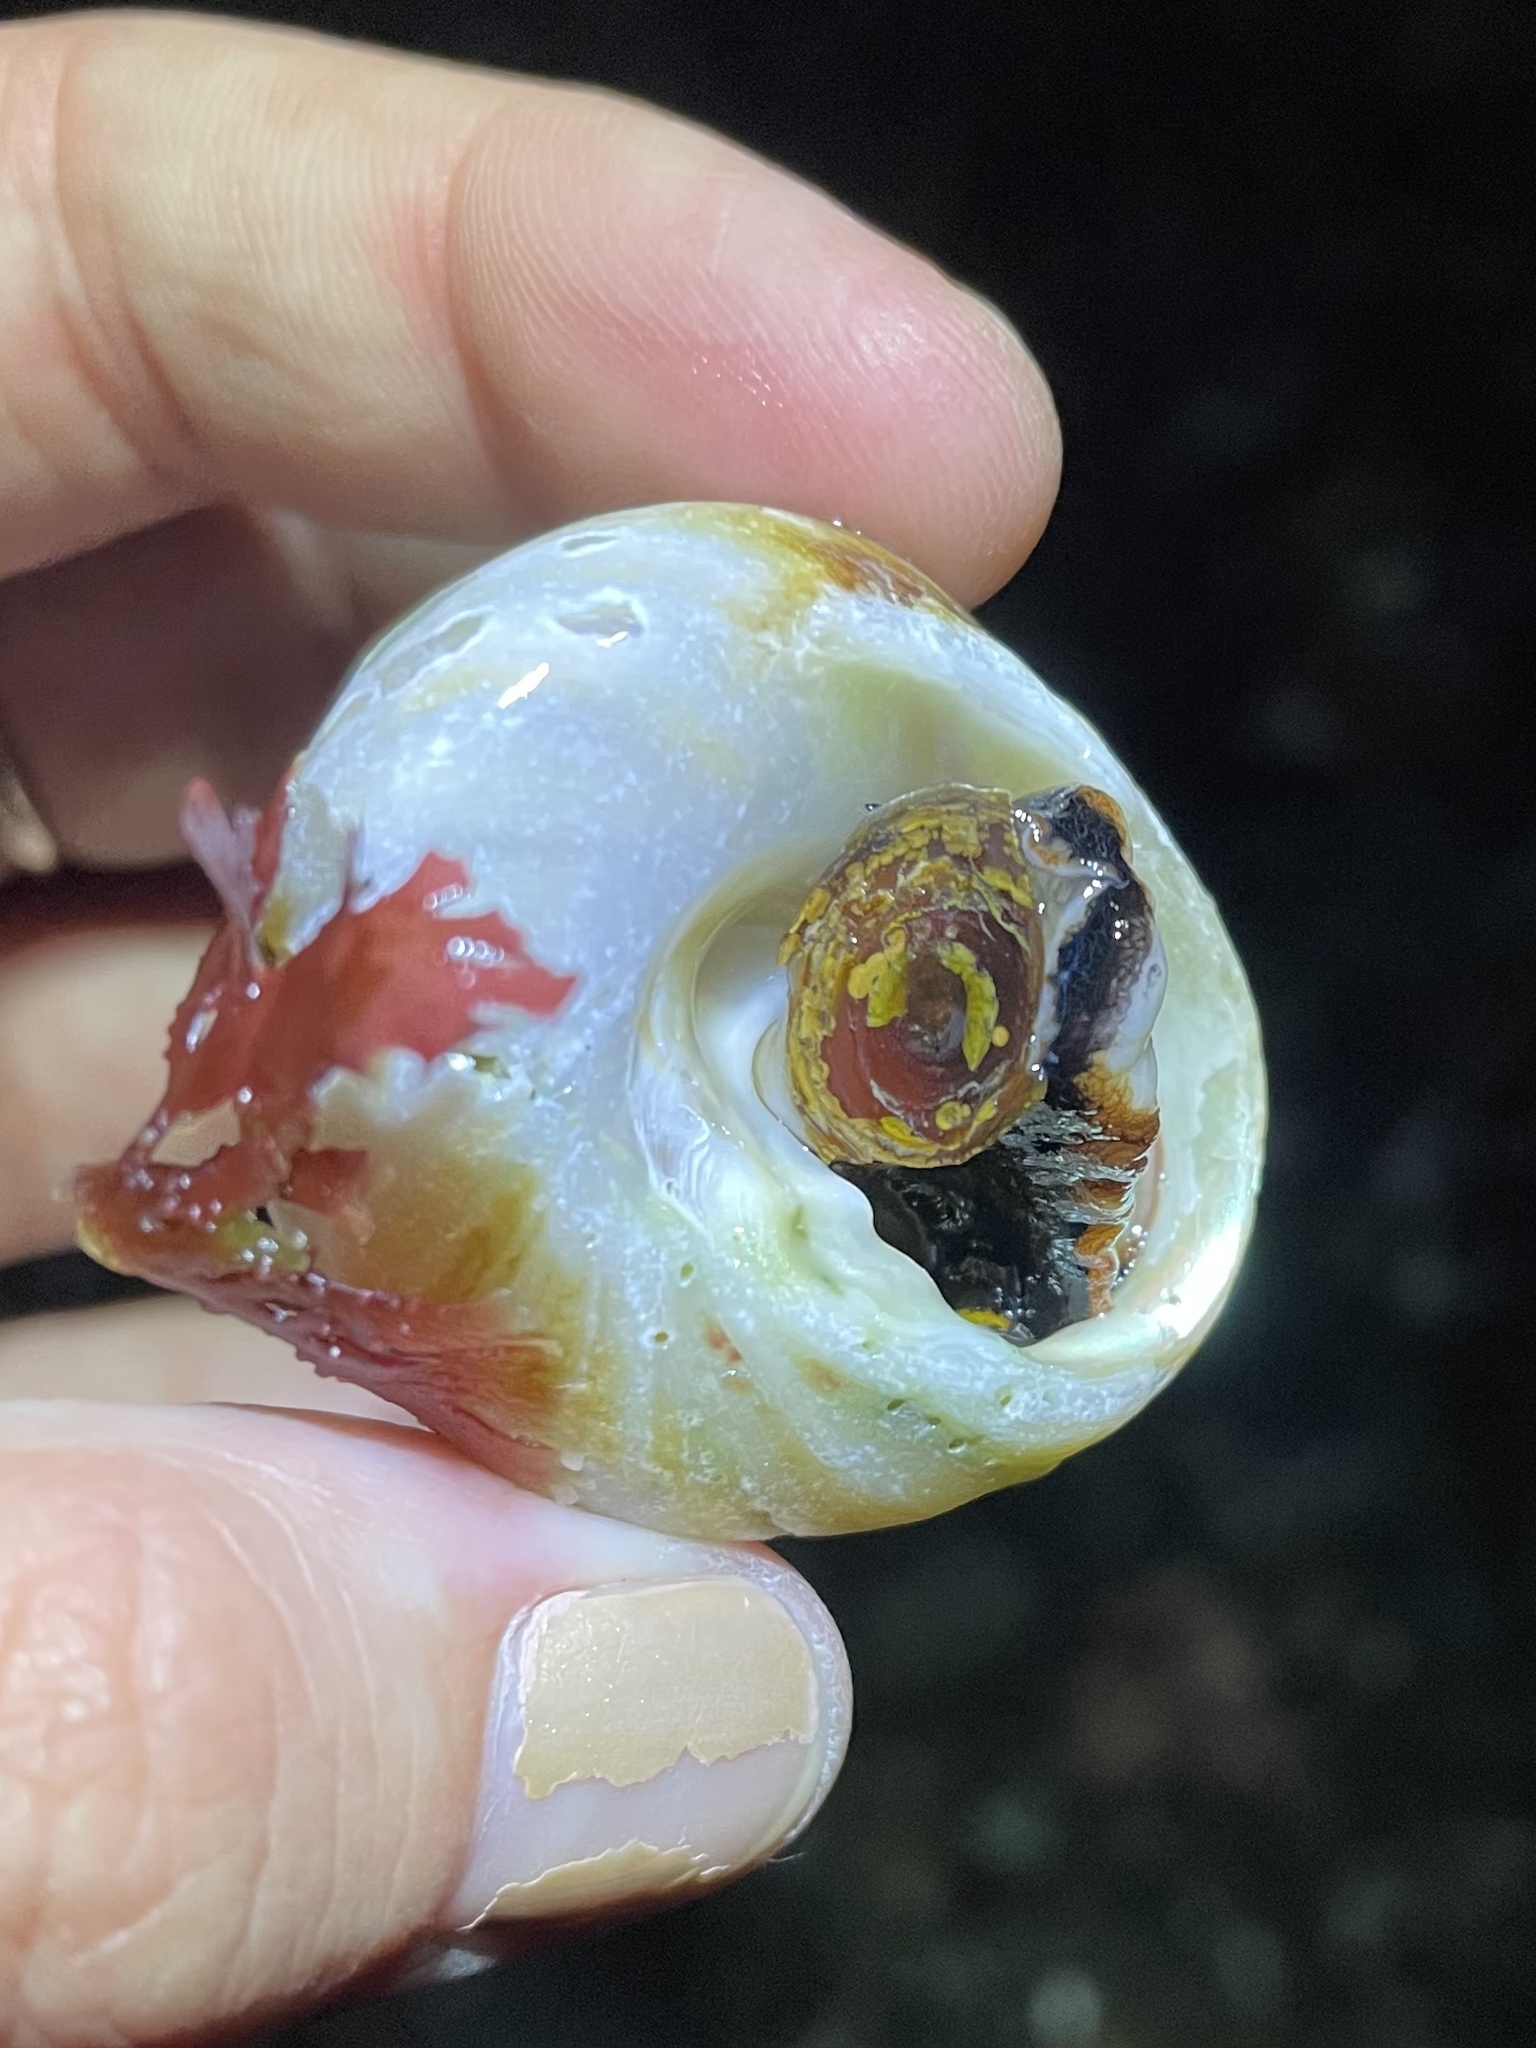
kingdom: Animalia
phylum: Mollusca
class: Gastropoda
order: Trochida
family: Tegulidae
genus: Tegula
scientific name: Tegula brunnea
